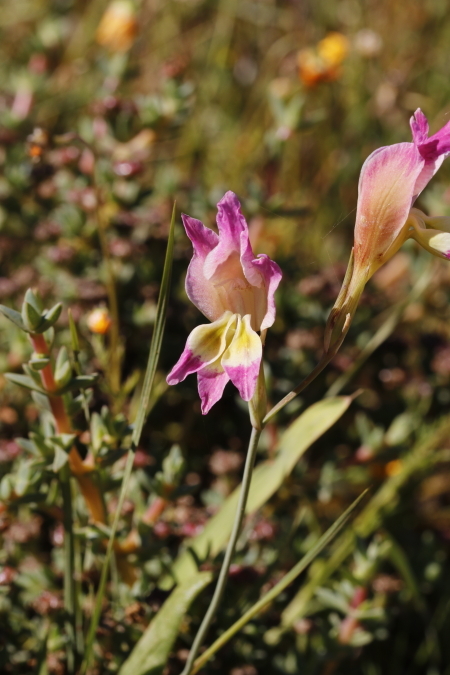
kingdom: Plantae
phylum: Tracheophyta
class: Liliopsida
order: Asparagales
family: Iridaceae
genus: Gladiolus
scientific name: Gladiolus venustus
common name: Purple kalkoentjie
